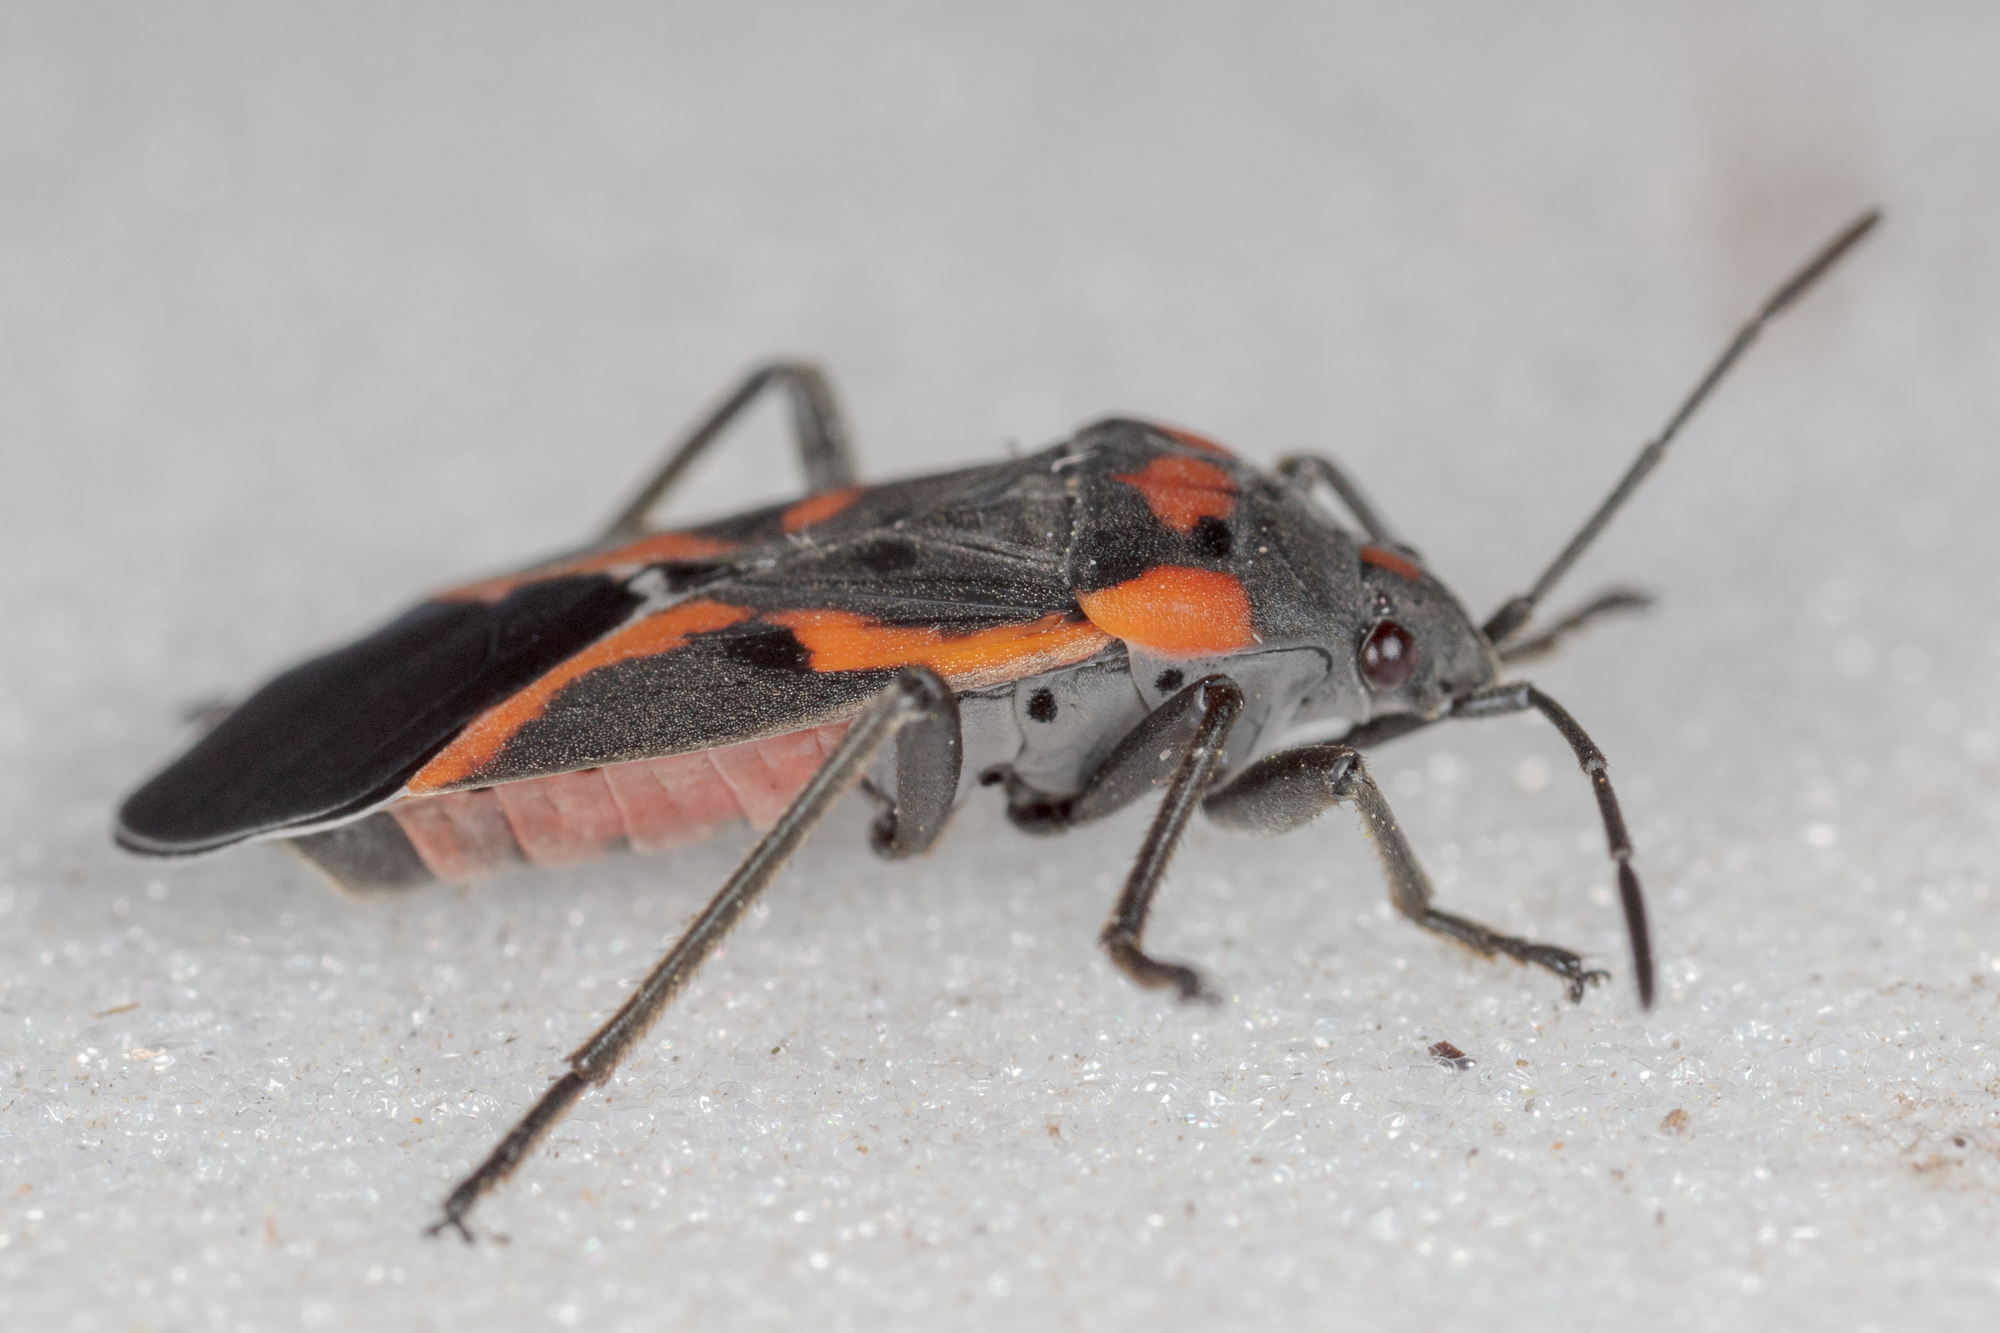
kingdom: Animalia
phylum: Arthropoda
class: Insecta
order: Hemiptera
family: Lygaeidae
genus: Lygaeus
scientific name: Lygaeus kalmii
